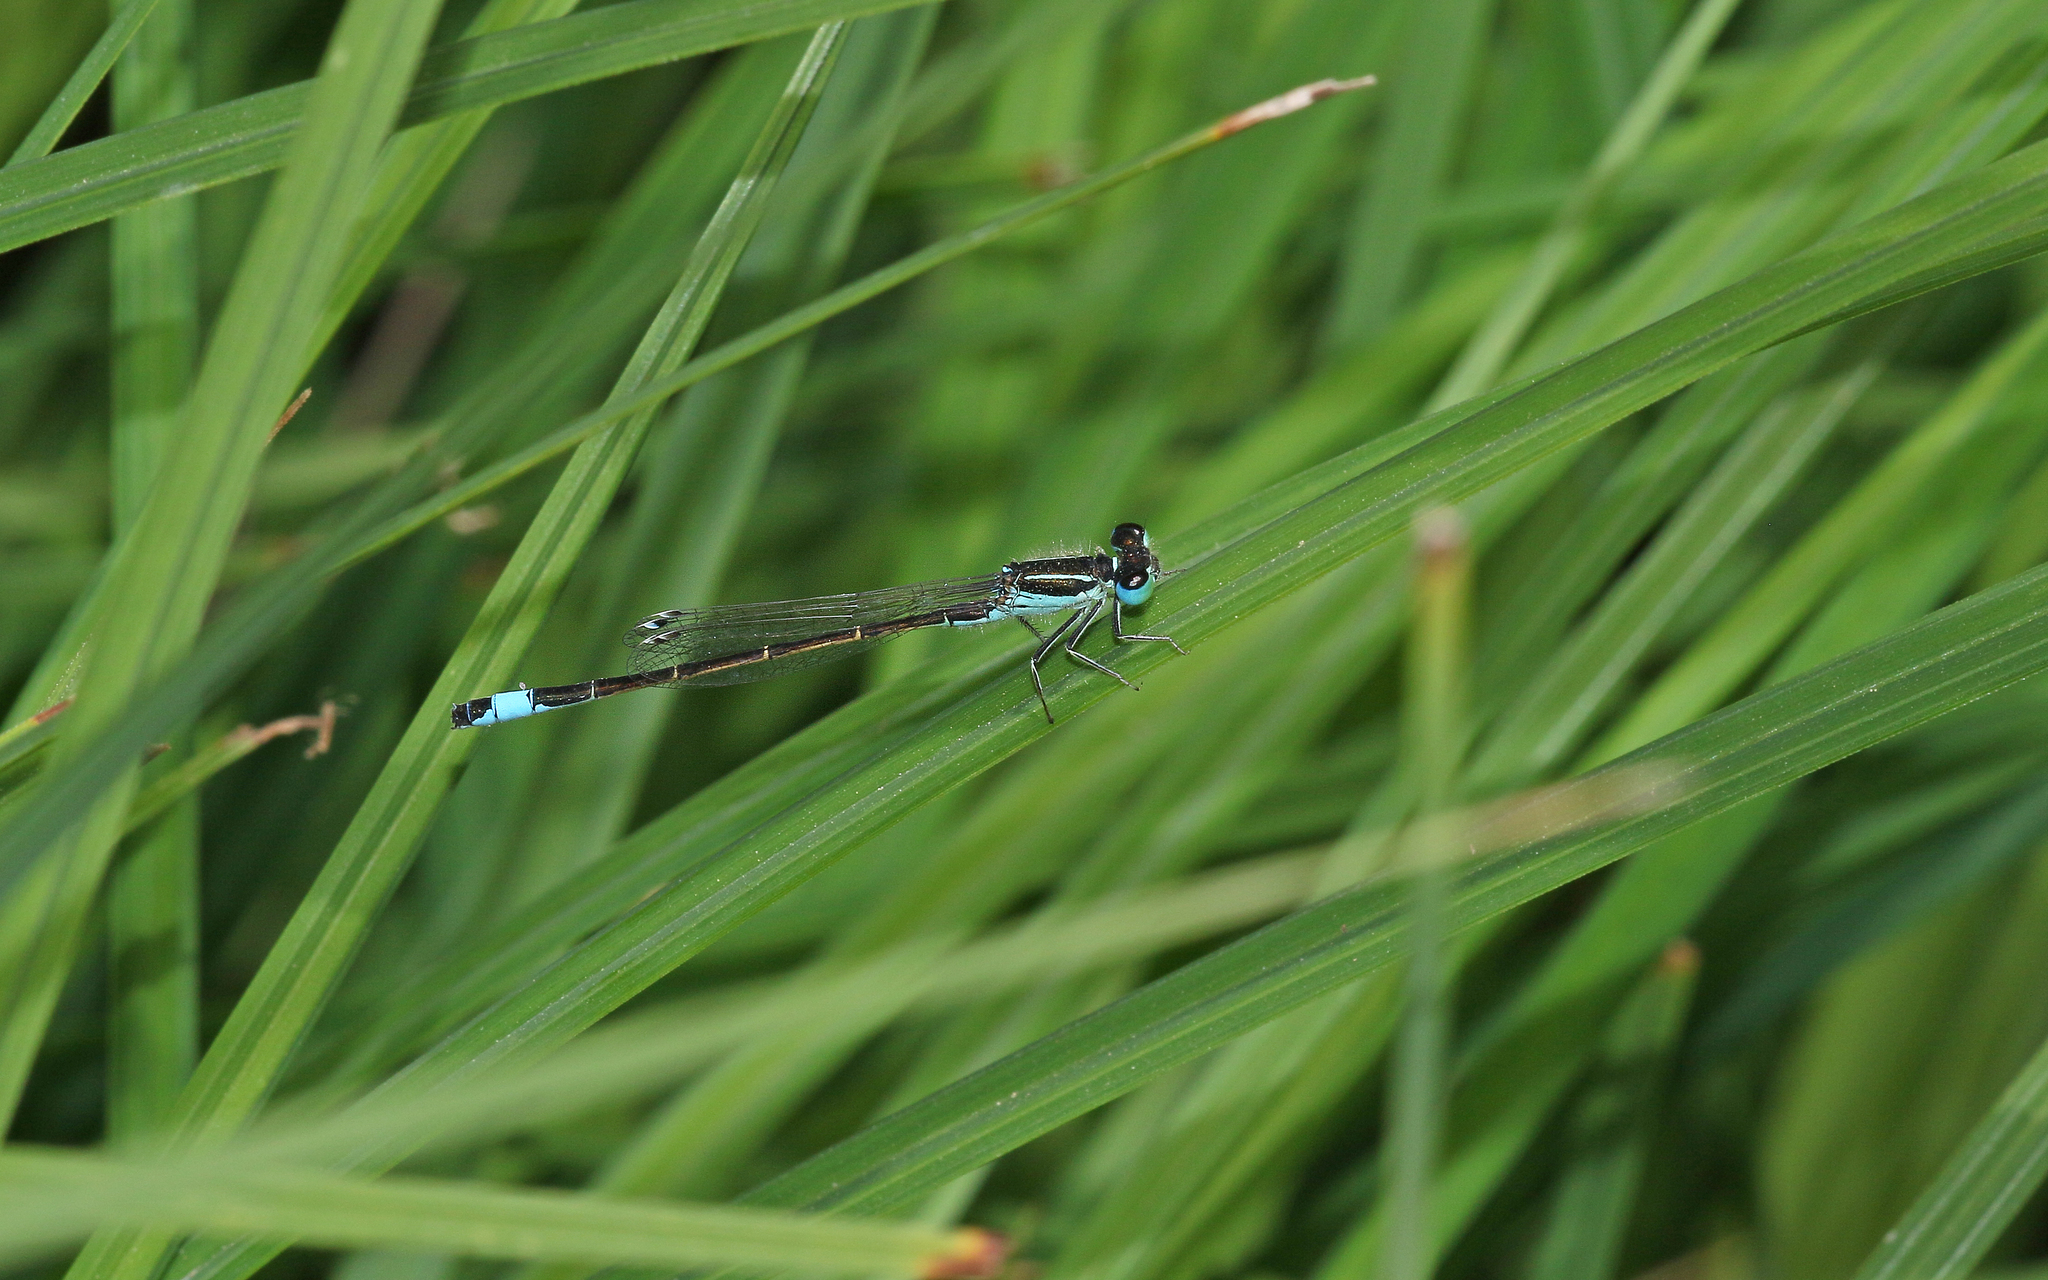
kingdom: Animalia
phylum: Arthropoda
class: Insecta
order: Odonata
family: Coenagrionidae
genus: Ischnura
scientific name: Ischnura graellsii
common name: Iberian bluetail
